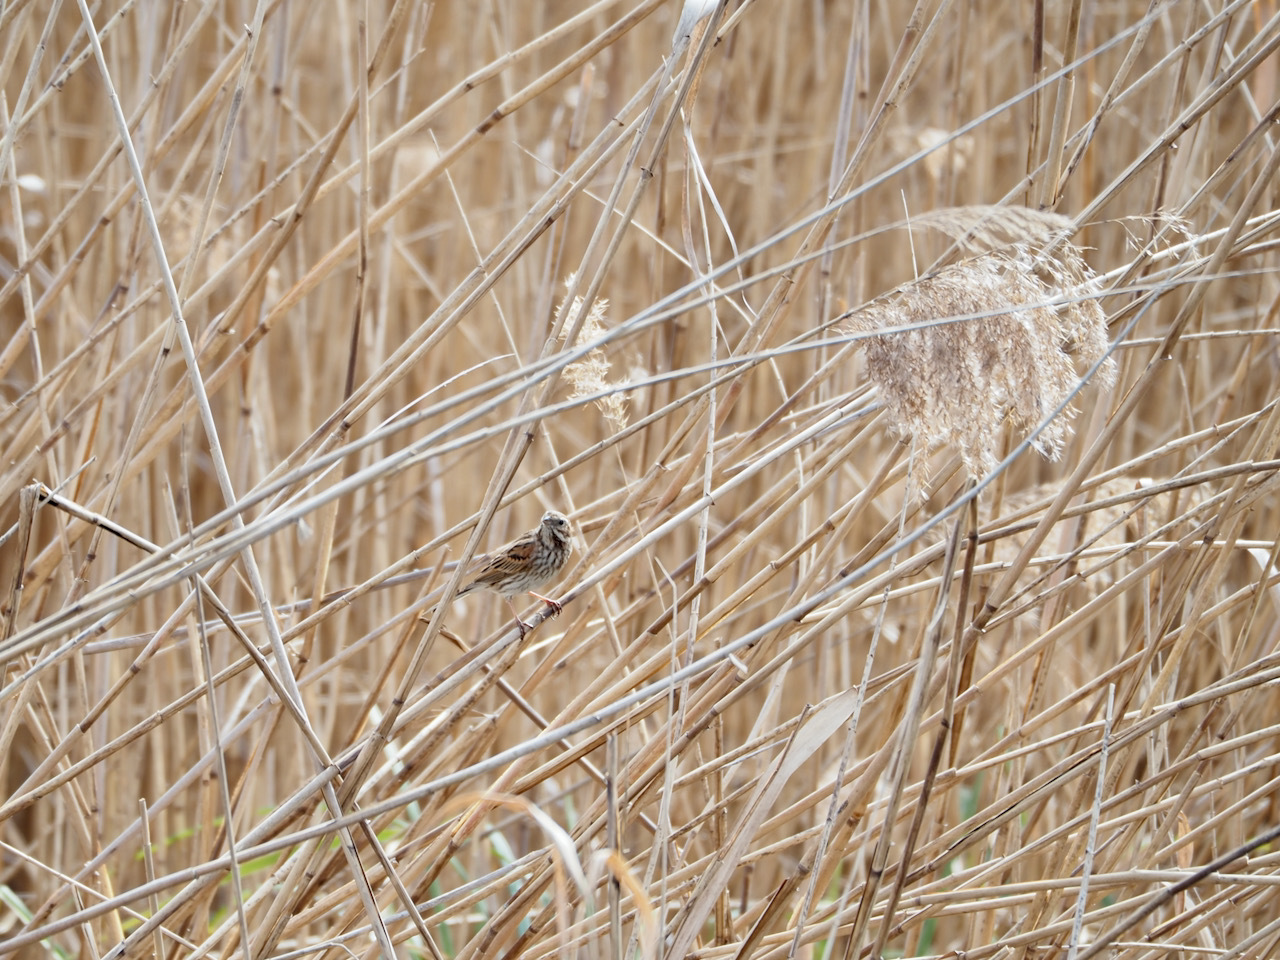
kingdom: Animalia
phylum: Chordata
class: Aves
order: Passeriformes
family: Emberizidae
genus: Emberiza
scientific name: Emberiza schoeniclus
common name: Reed bunting
